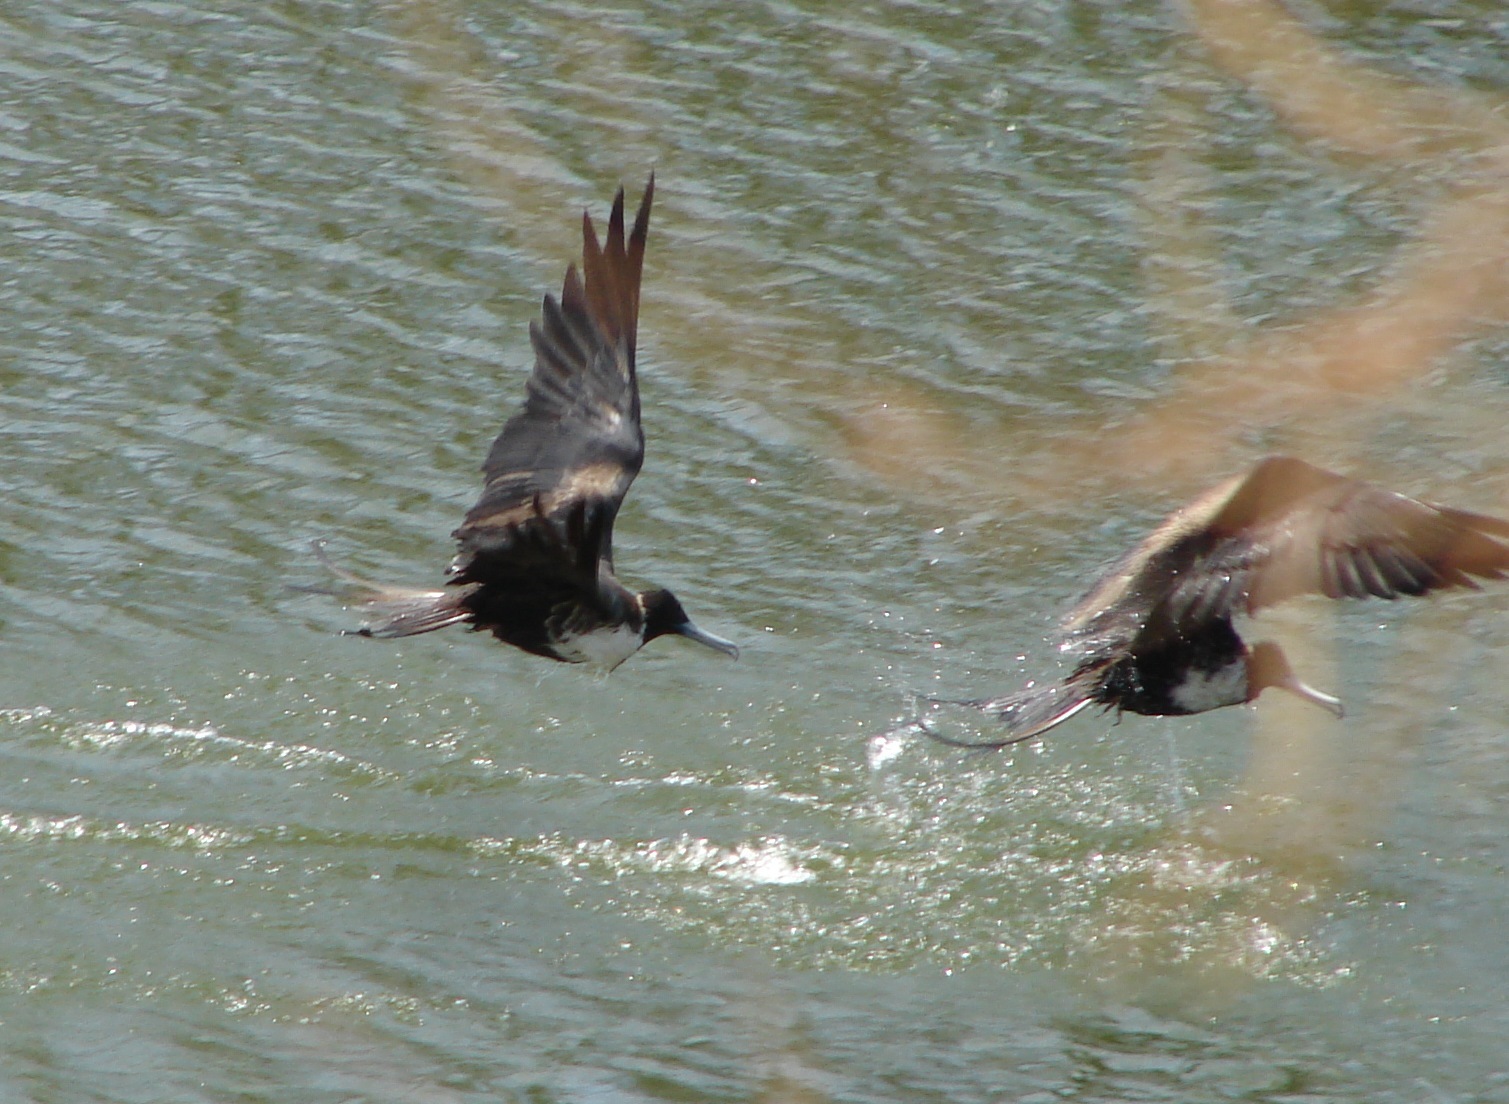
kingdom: Animalia
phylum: Chordata
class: Aves
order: Suliformes
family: Fregatidae
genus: Fregata
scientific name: Fregata magnificens
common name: Magnificent frigatebird
